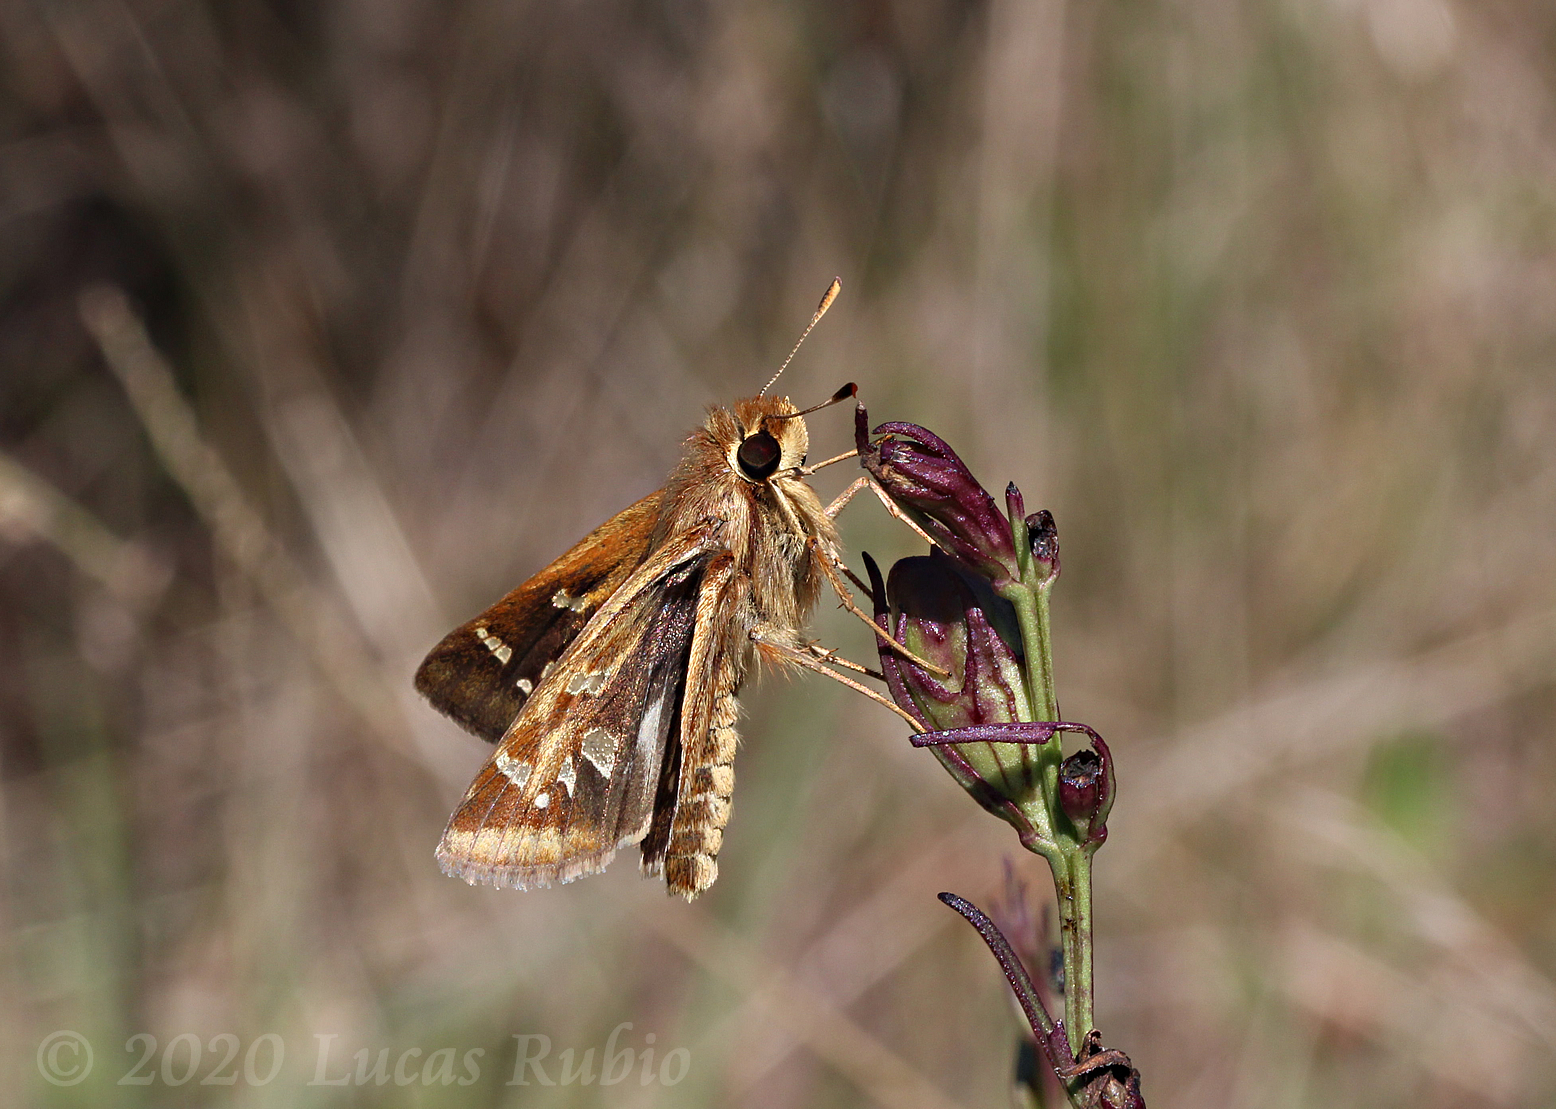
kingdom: Animalia
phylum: Arthropoda
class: Insecta
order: Lepidoptera
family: Hesperiidae
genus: Thespieus
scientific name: Thespieus catochra
